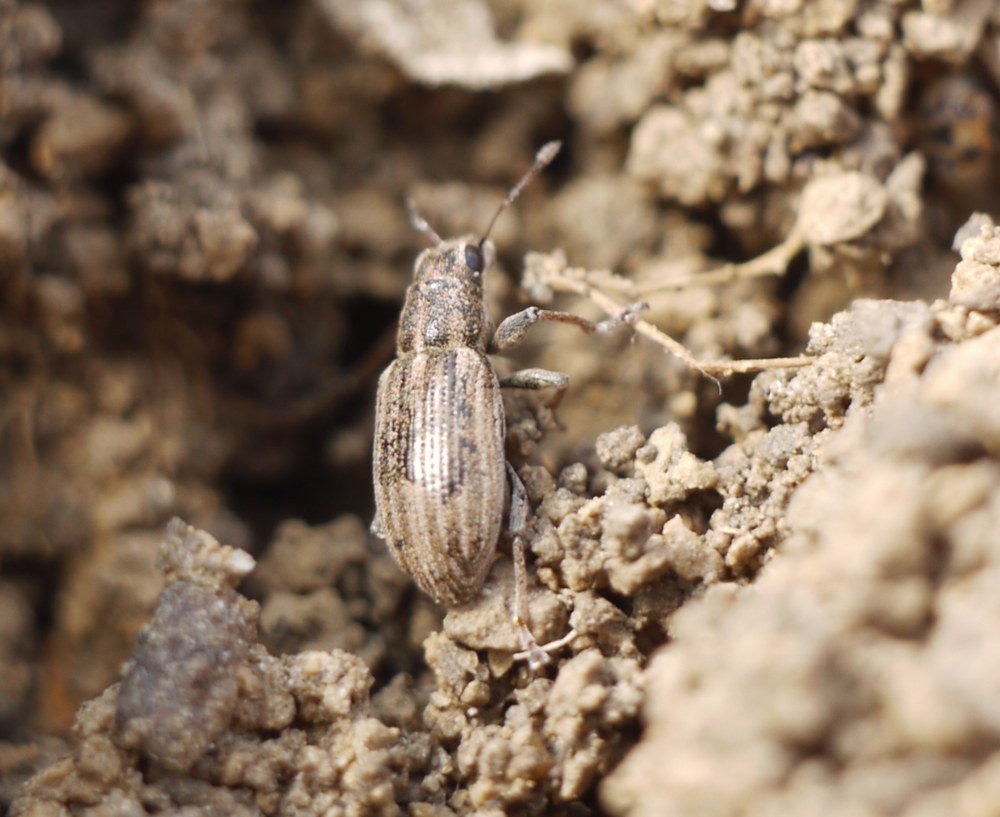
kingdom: Animalia
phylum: Arthropoda
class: Insecta
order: Coleoptera
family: Curculionidae
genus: Sitona
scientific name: Sitona lineatus
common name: Weevil
